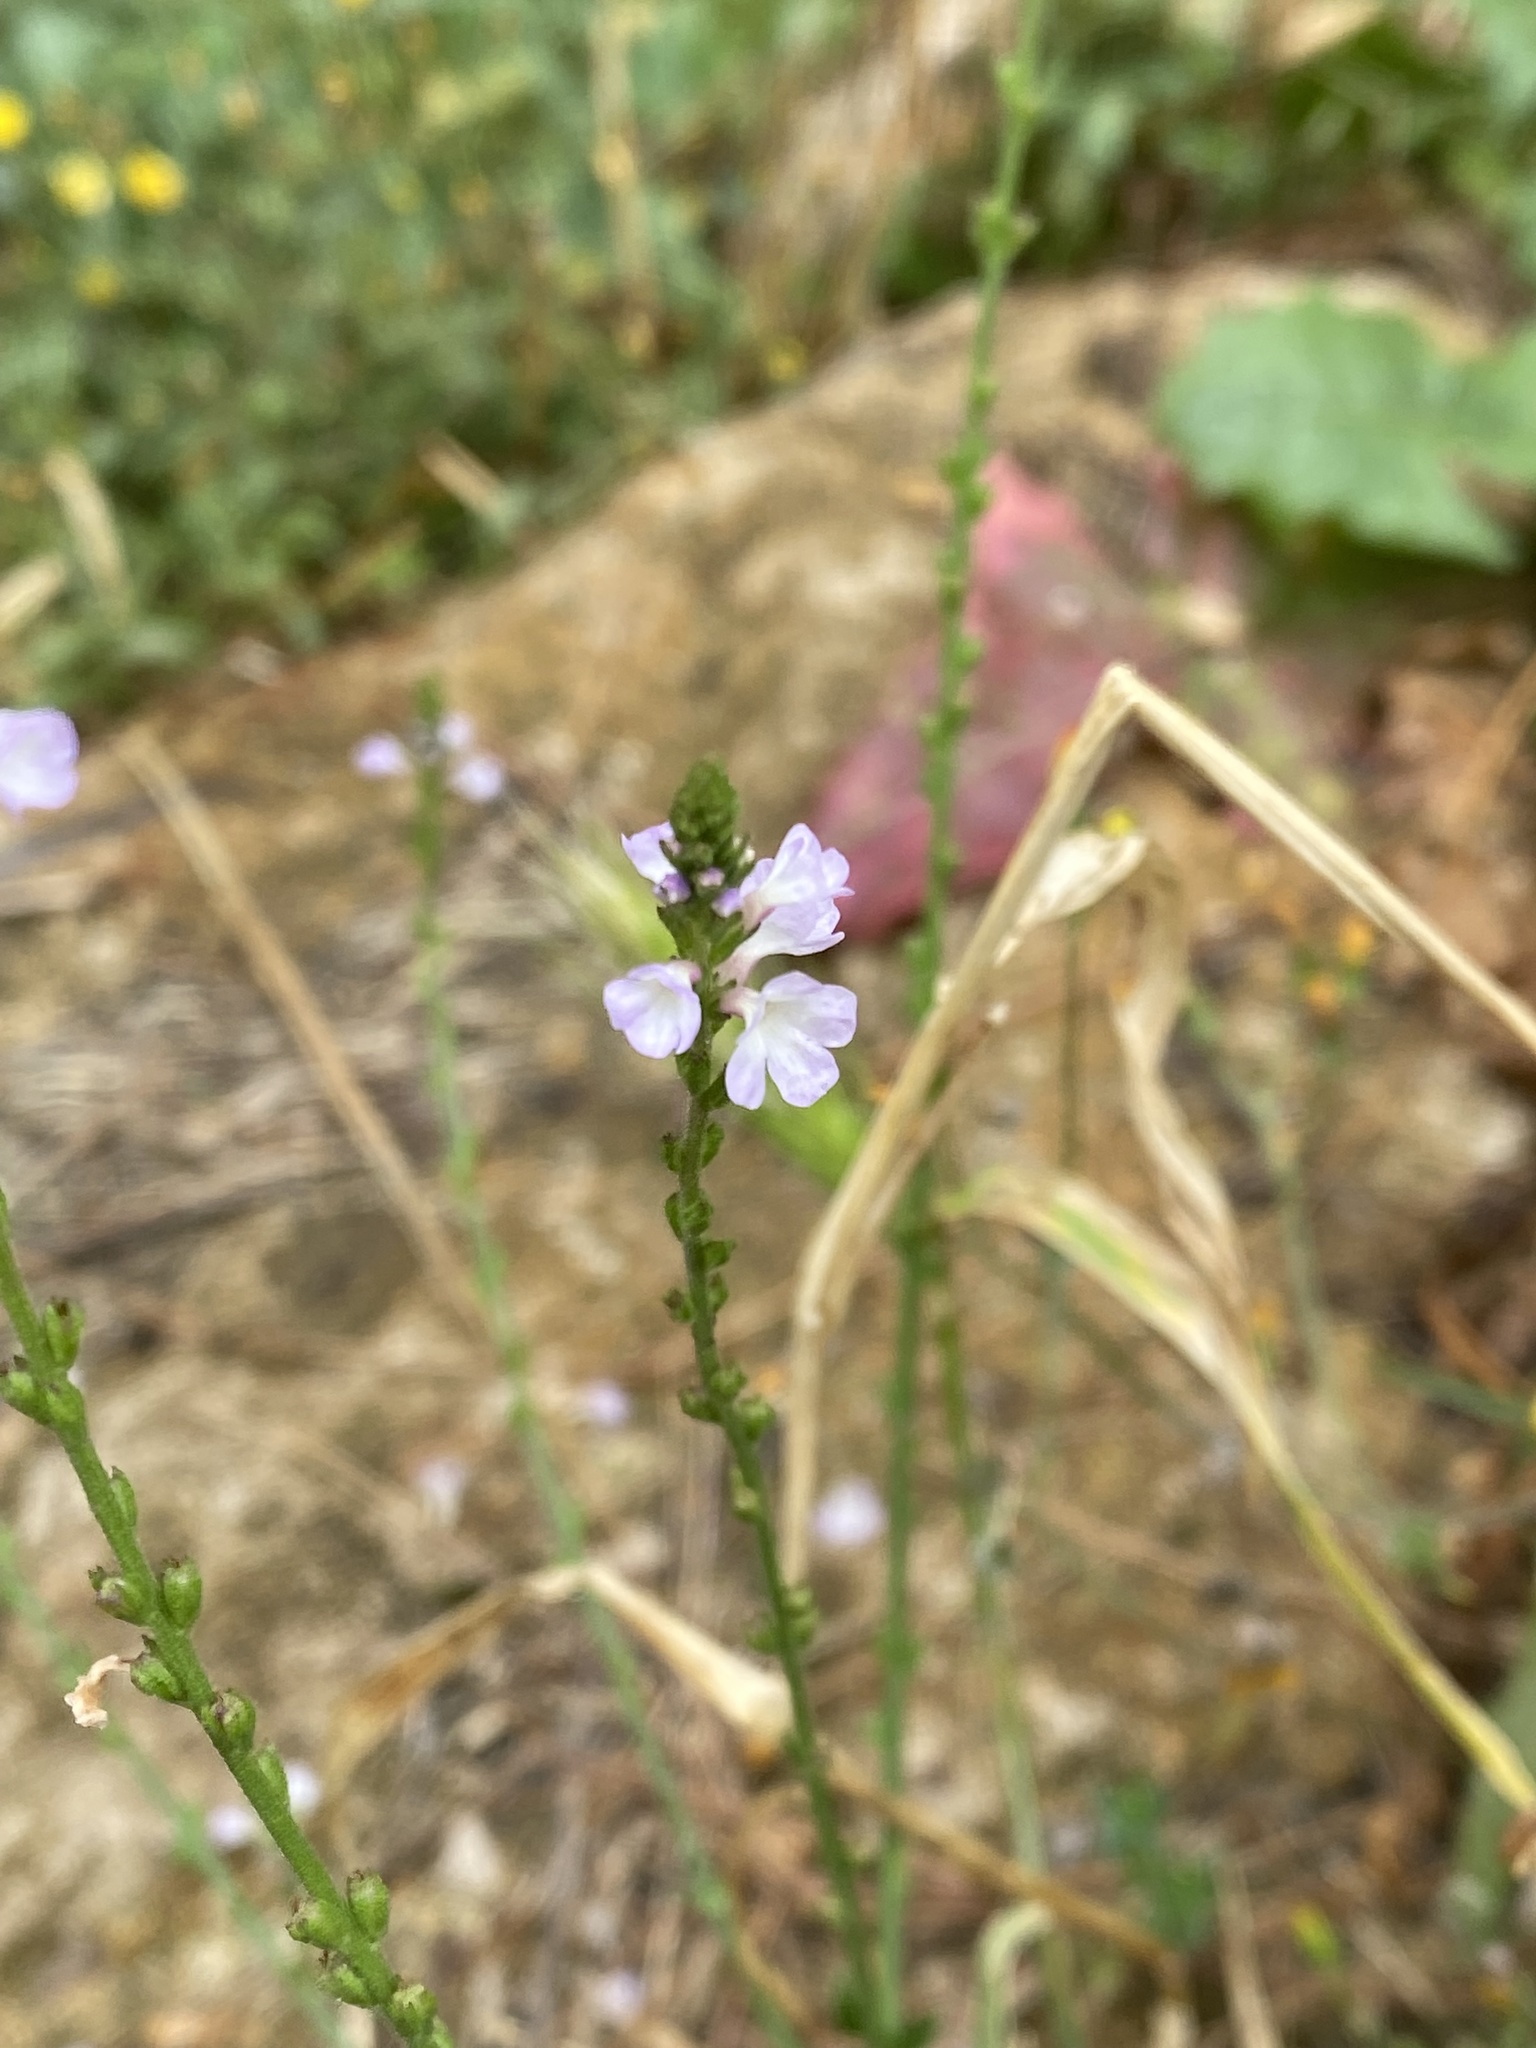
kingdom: Plantae
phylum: Tracheophyta
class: Magnoliopsida
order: Lamiales
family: Verbenaceae
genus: Verbena
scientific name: Verbena officinalis
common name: Vervain
